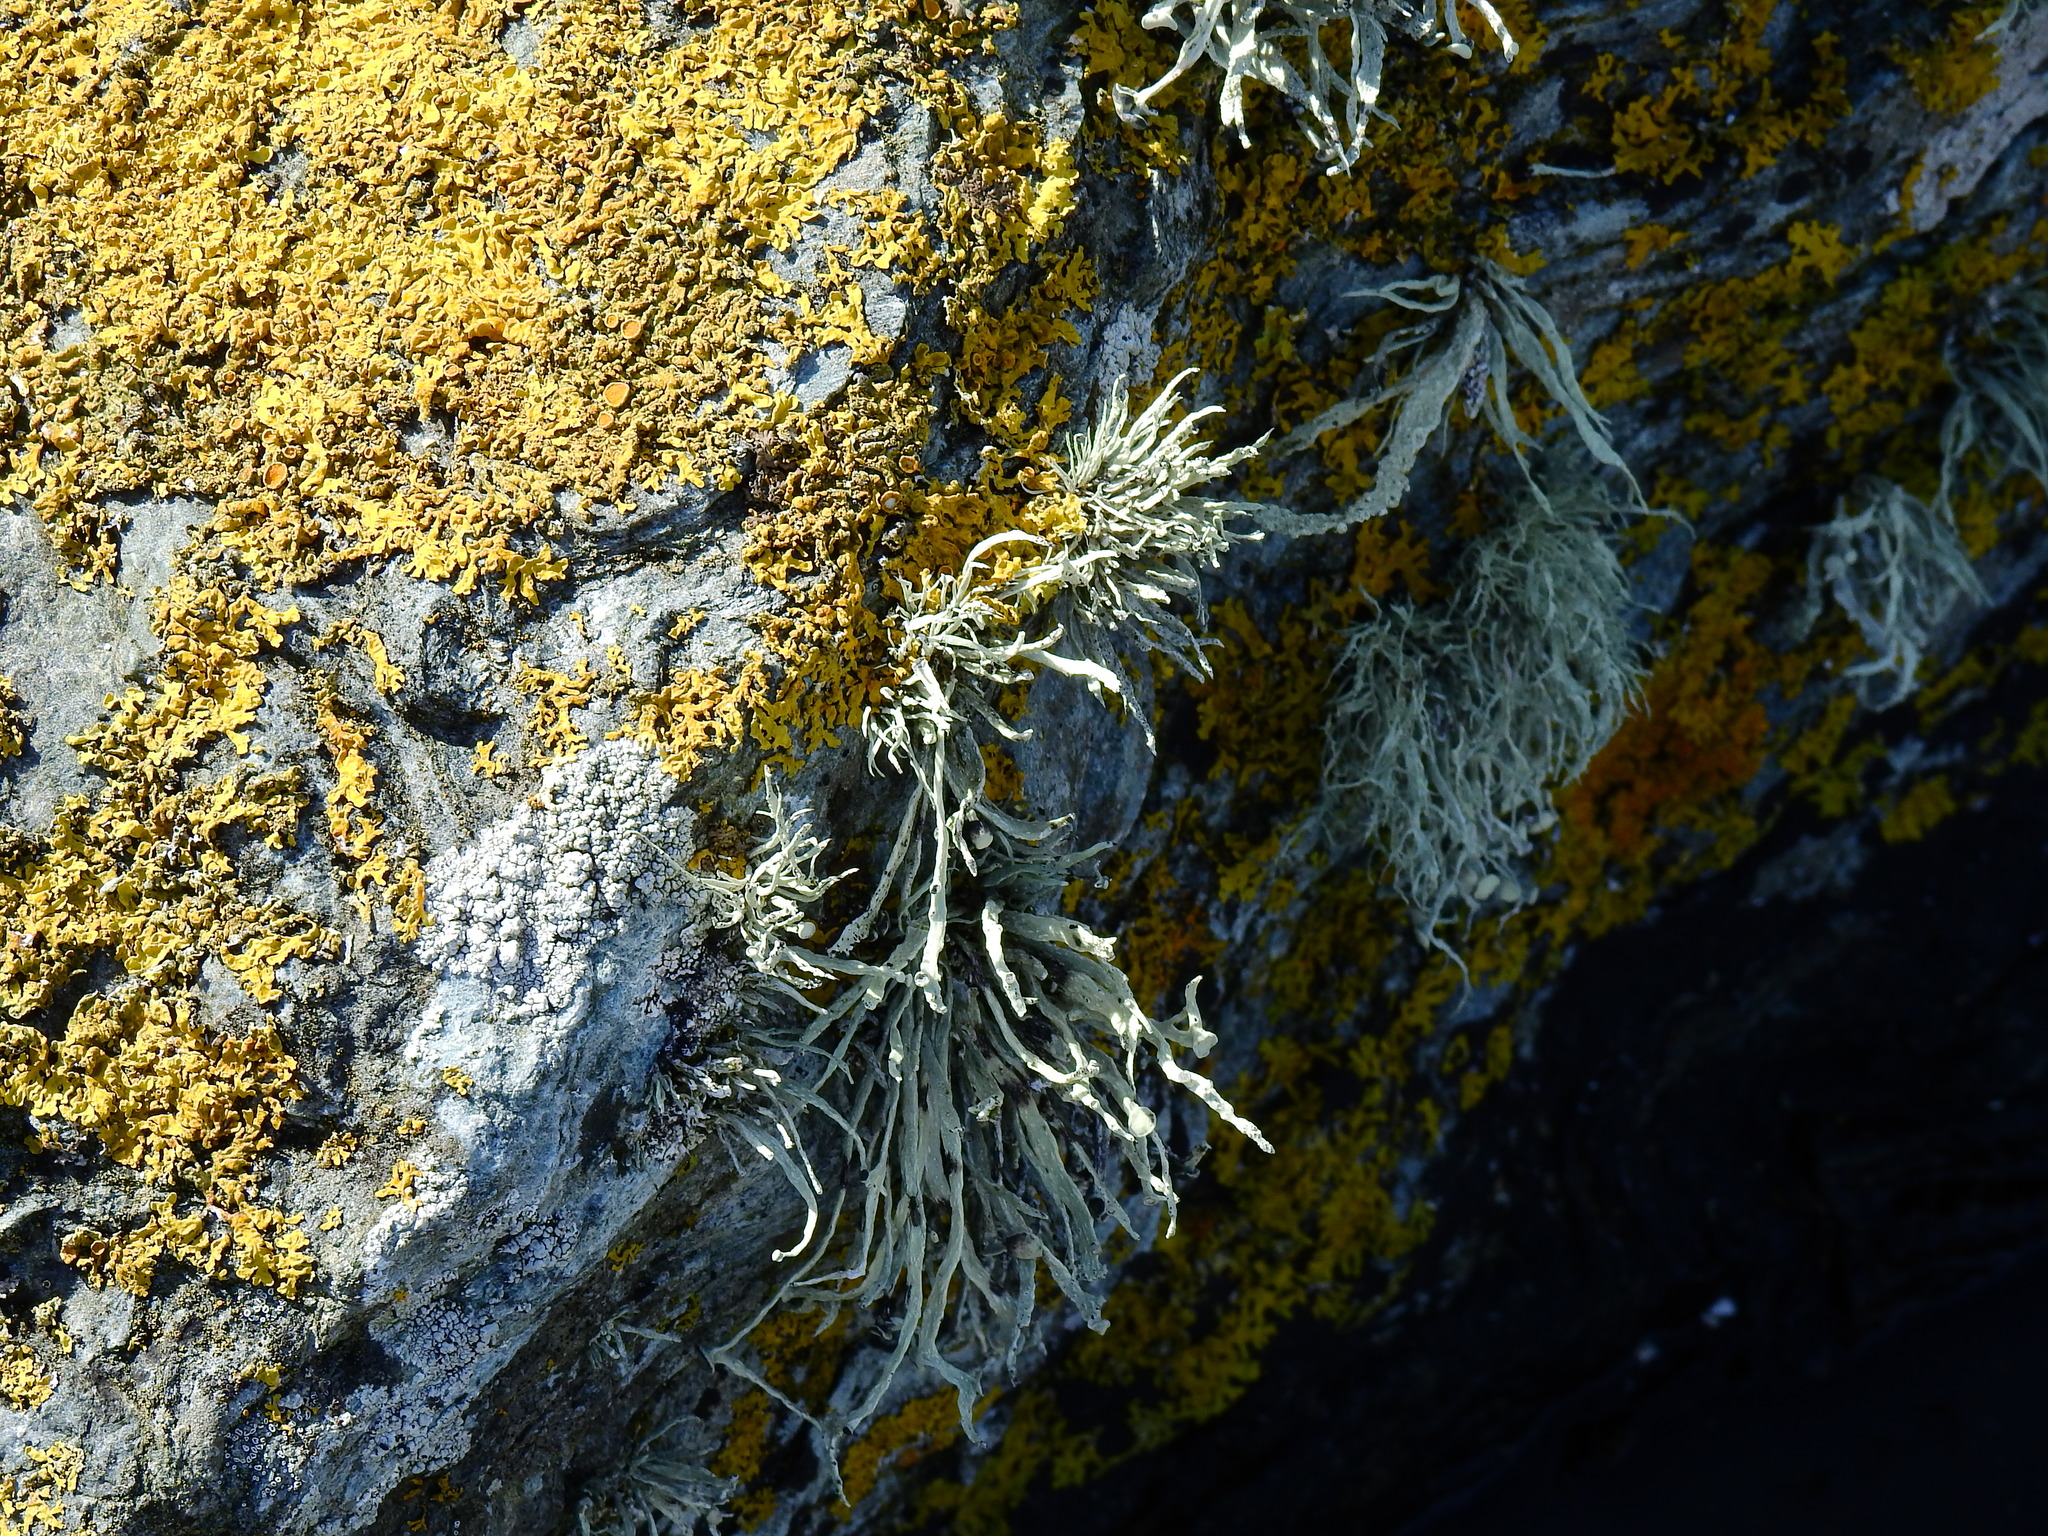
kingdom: Fungi
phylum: Ascomycota
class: Lecanoromycetes
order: Lecanorales
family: Ramalinaceae
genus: Ramalina
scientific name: Ramalina cuspidata
